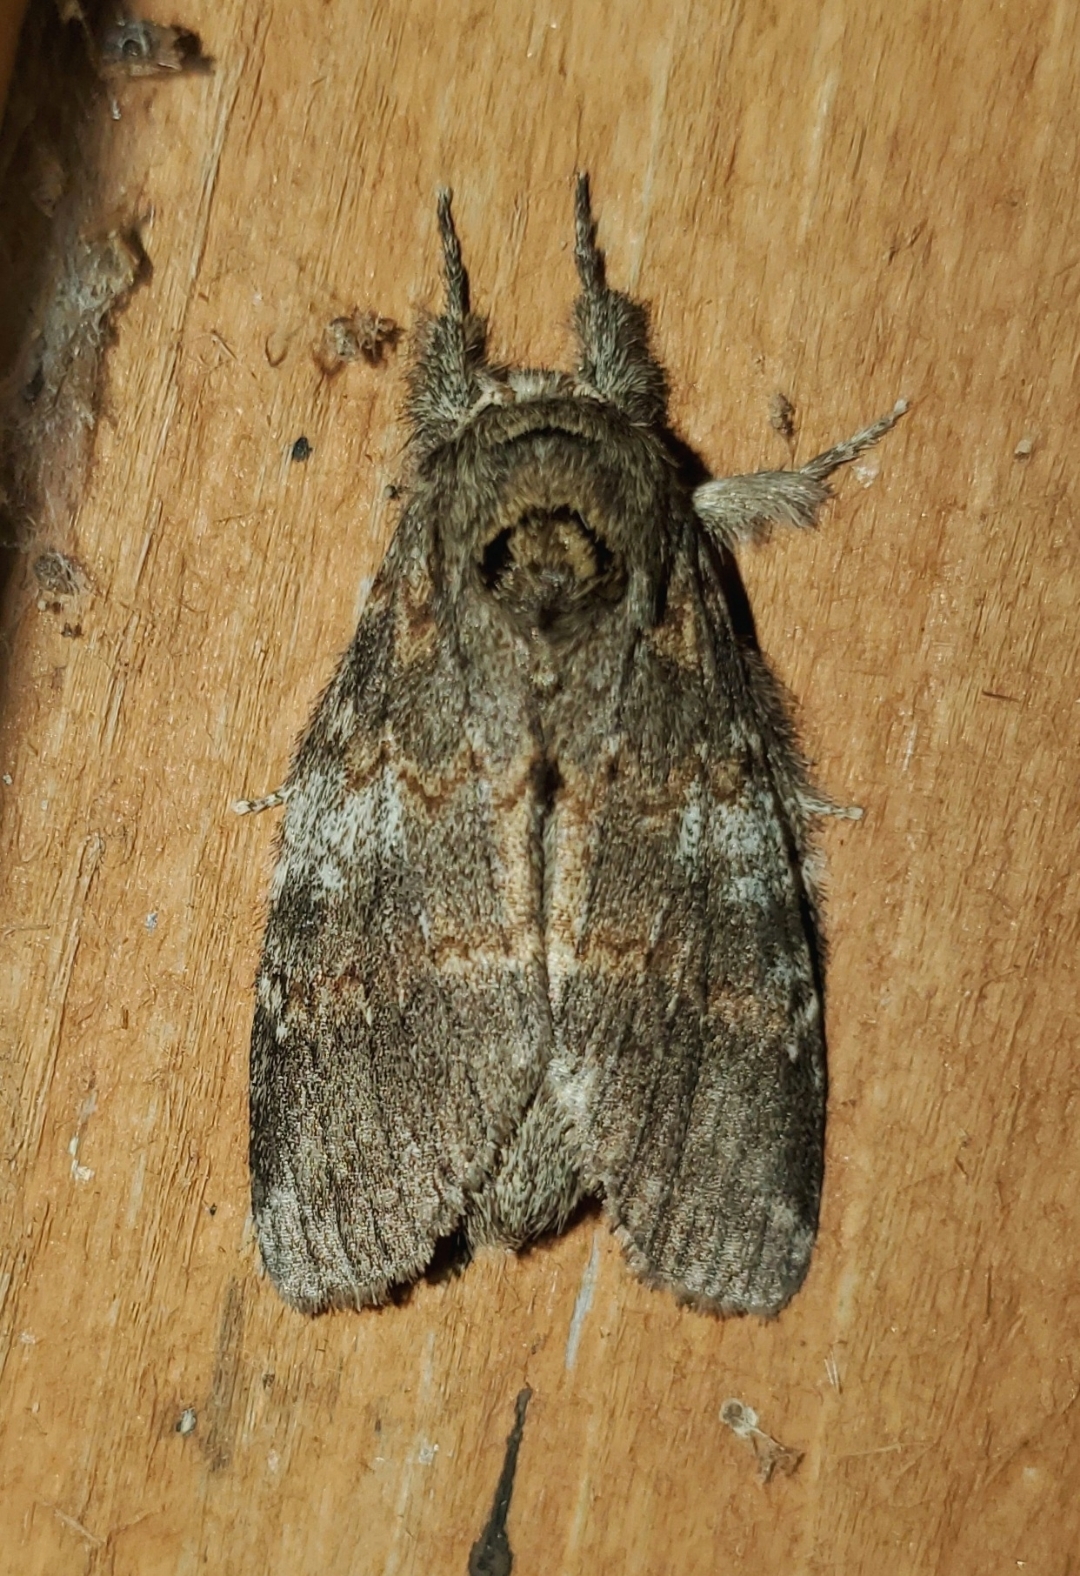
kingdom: Animalia
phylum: Arthropoda
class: Insecta
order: Lepidoptera
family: Notodontidae
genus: Peridea
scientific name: Peridea angulosa
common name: Angulose prominent
